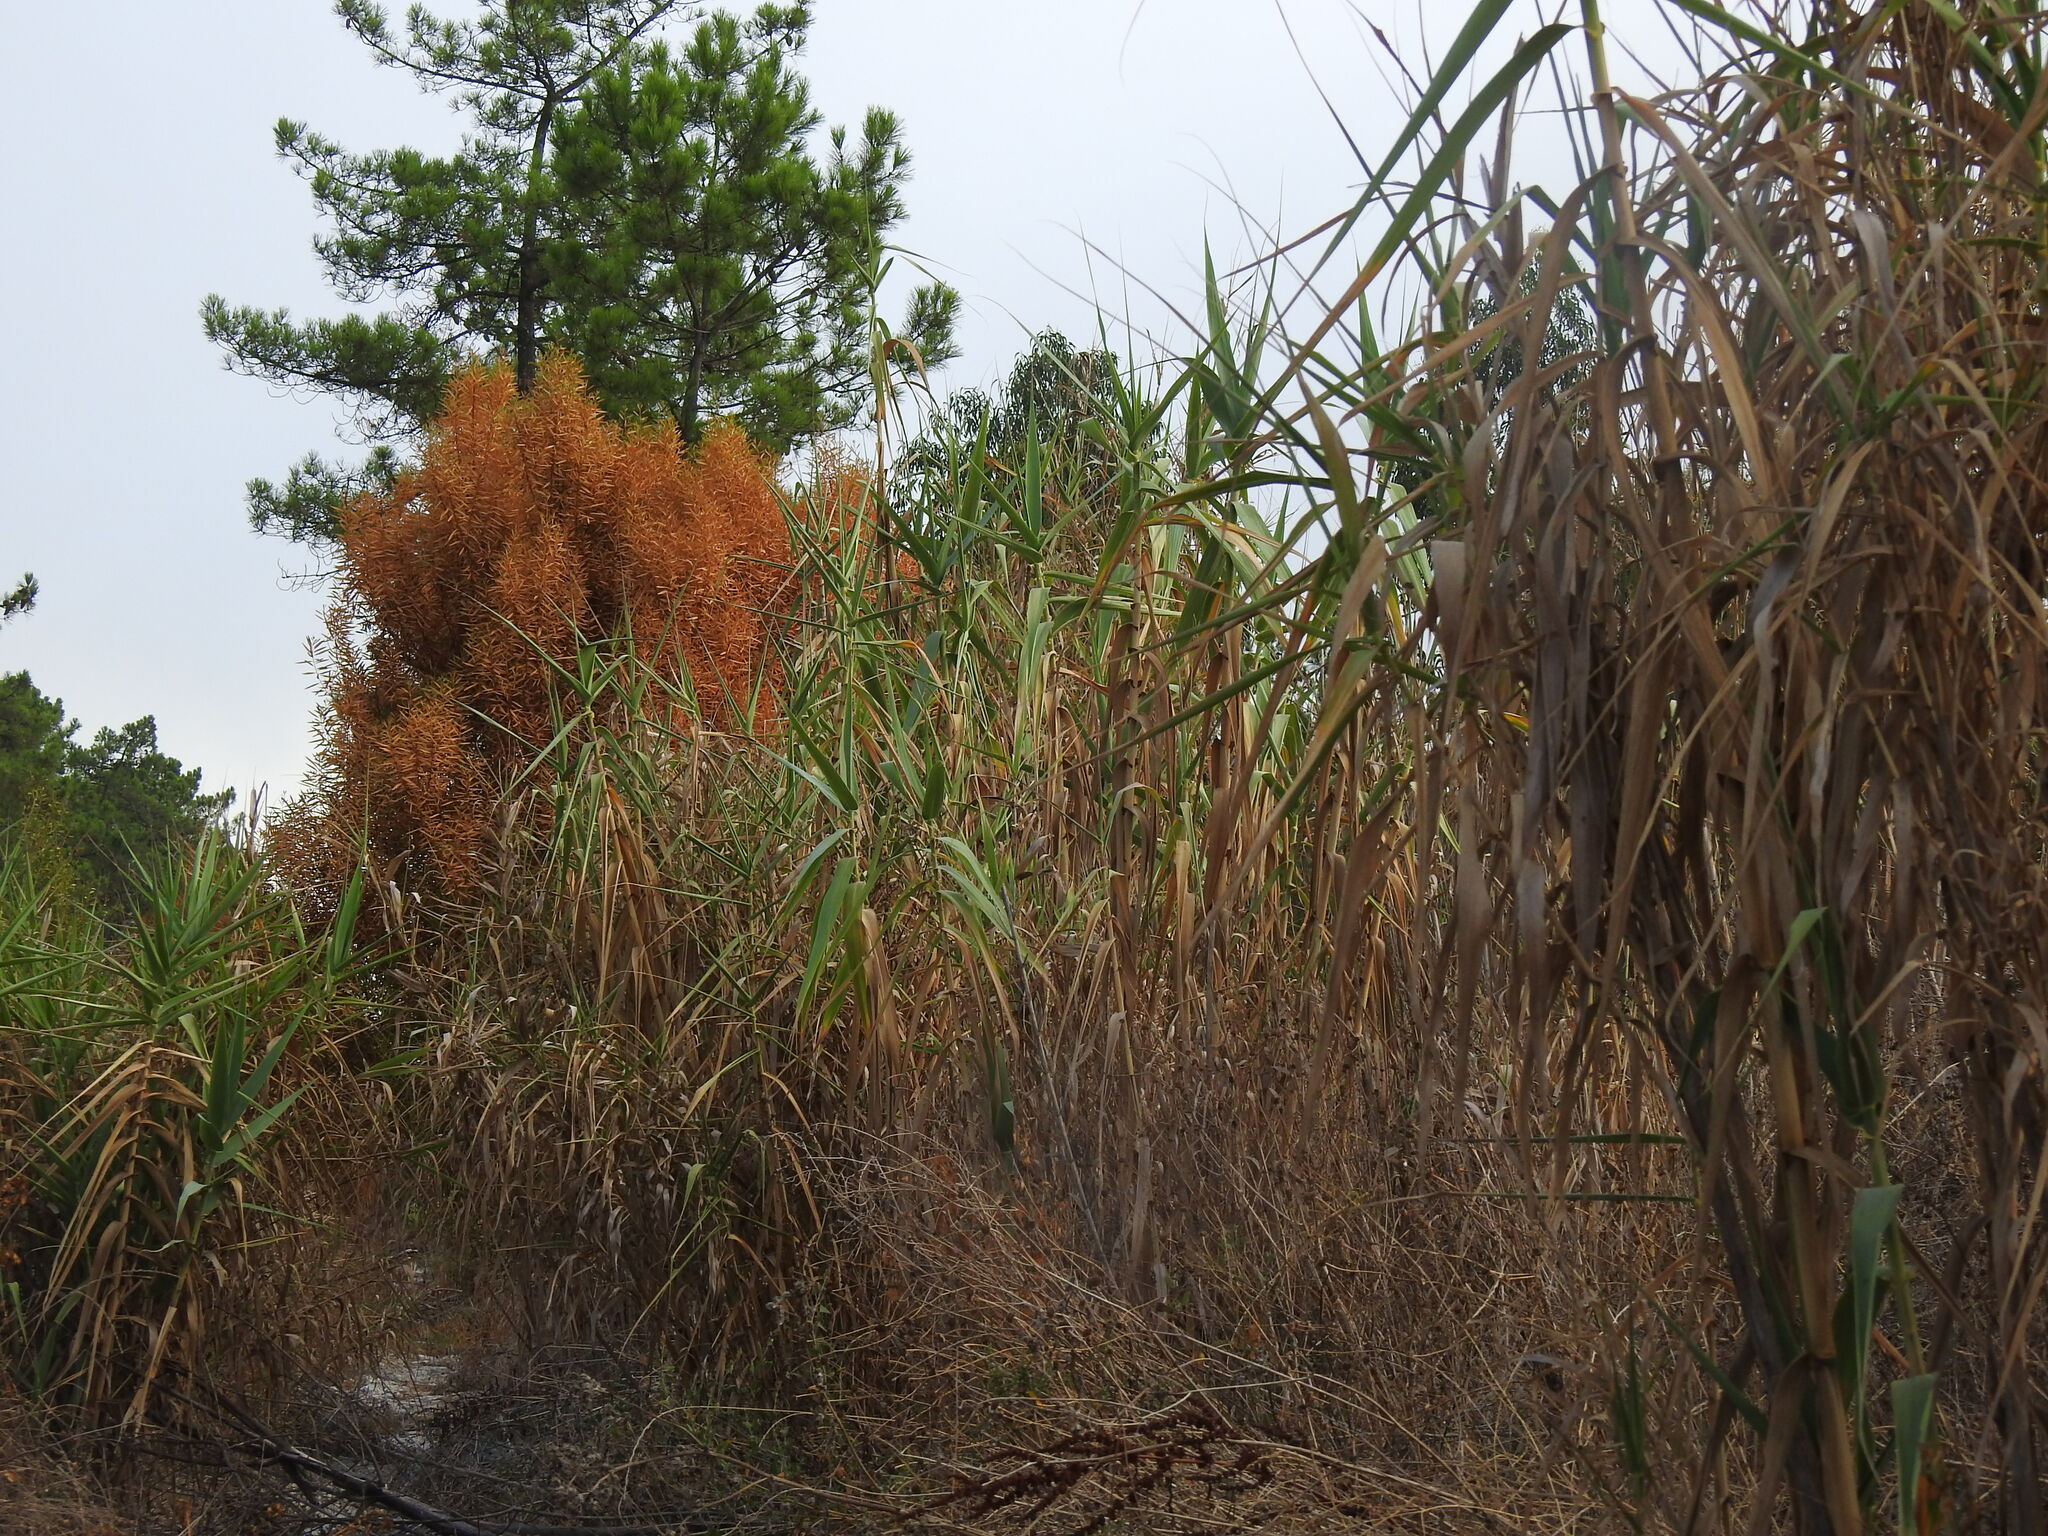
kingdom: Plantae
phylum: Tracheophyta
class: Liliopsida
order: Poales
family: Poaceae
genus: Arundo
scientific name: Arundo donax
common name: Giant reed
